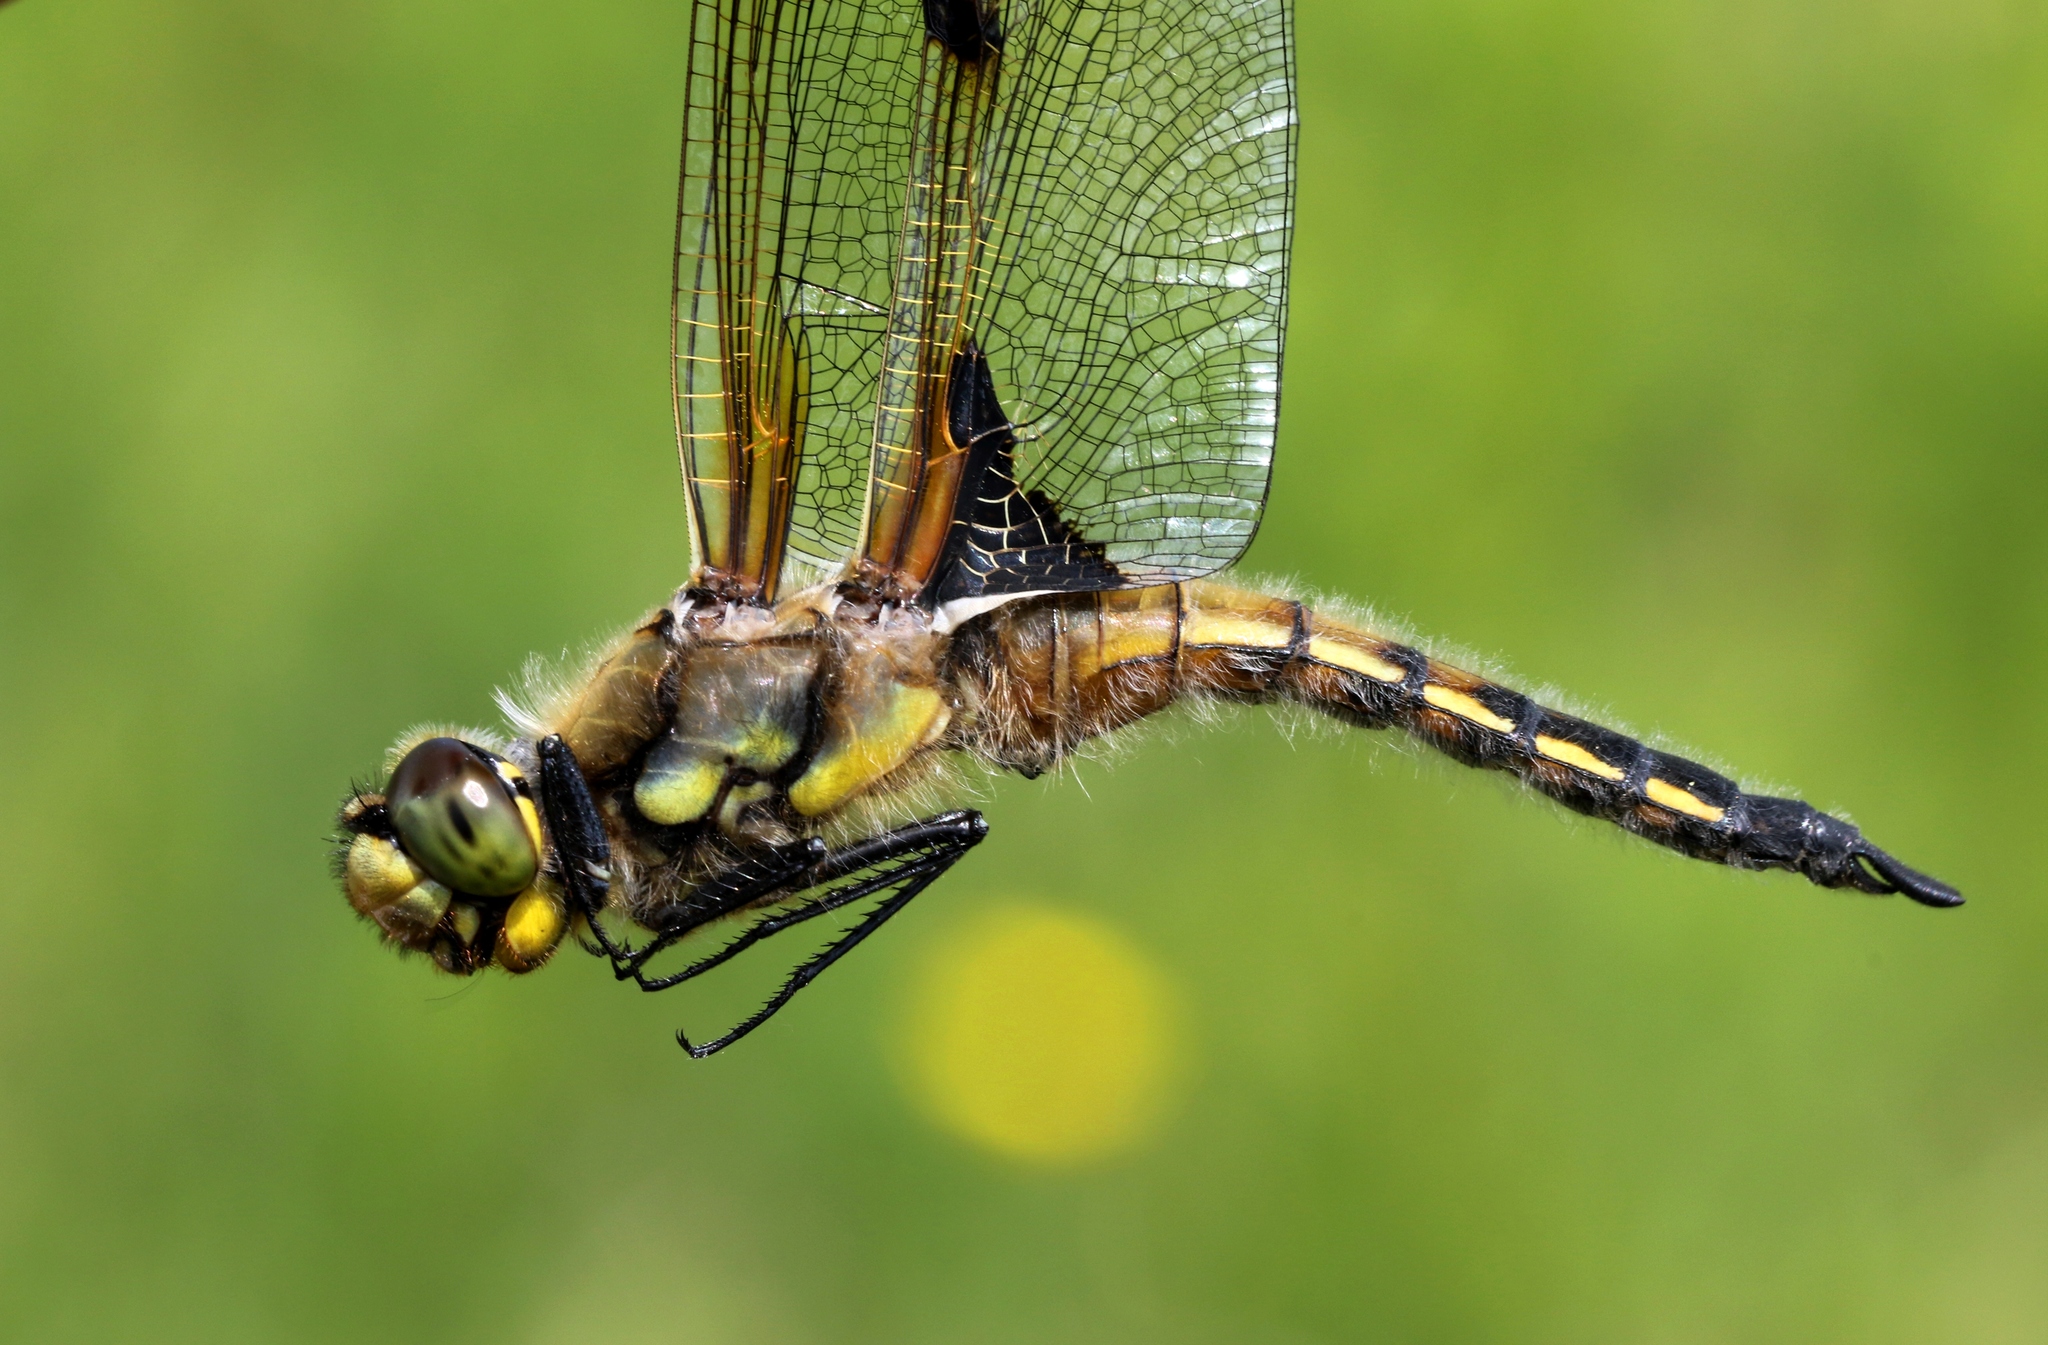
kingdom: Animalia
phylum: Arthropoda
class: Insecta
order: Odonata
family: Libellulidae
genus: Libellula
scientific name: Libellula quadrimaculata
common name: Four-spotted chaser
